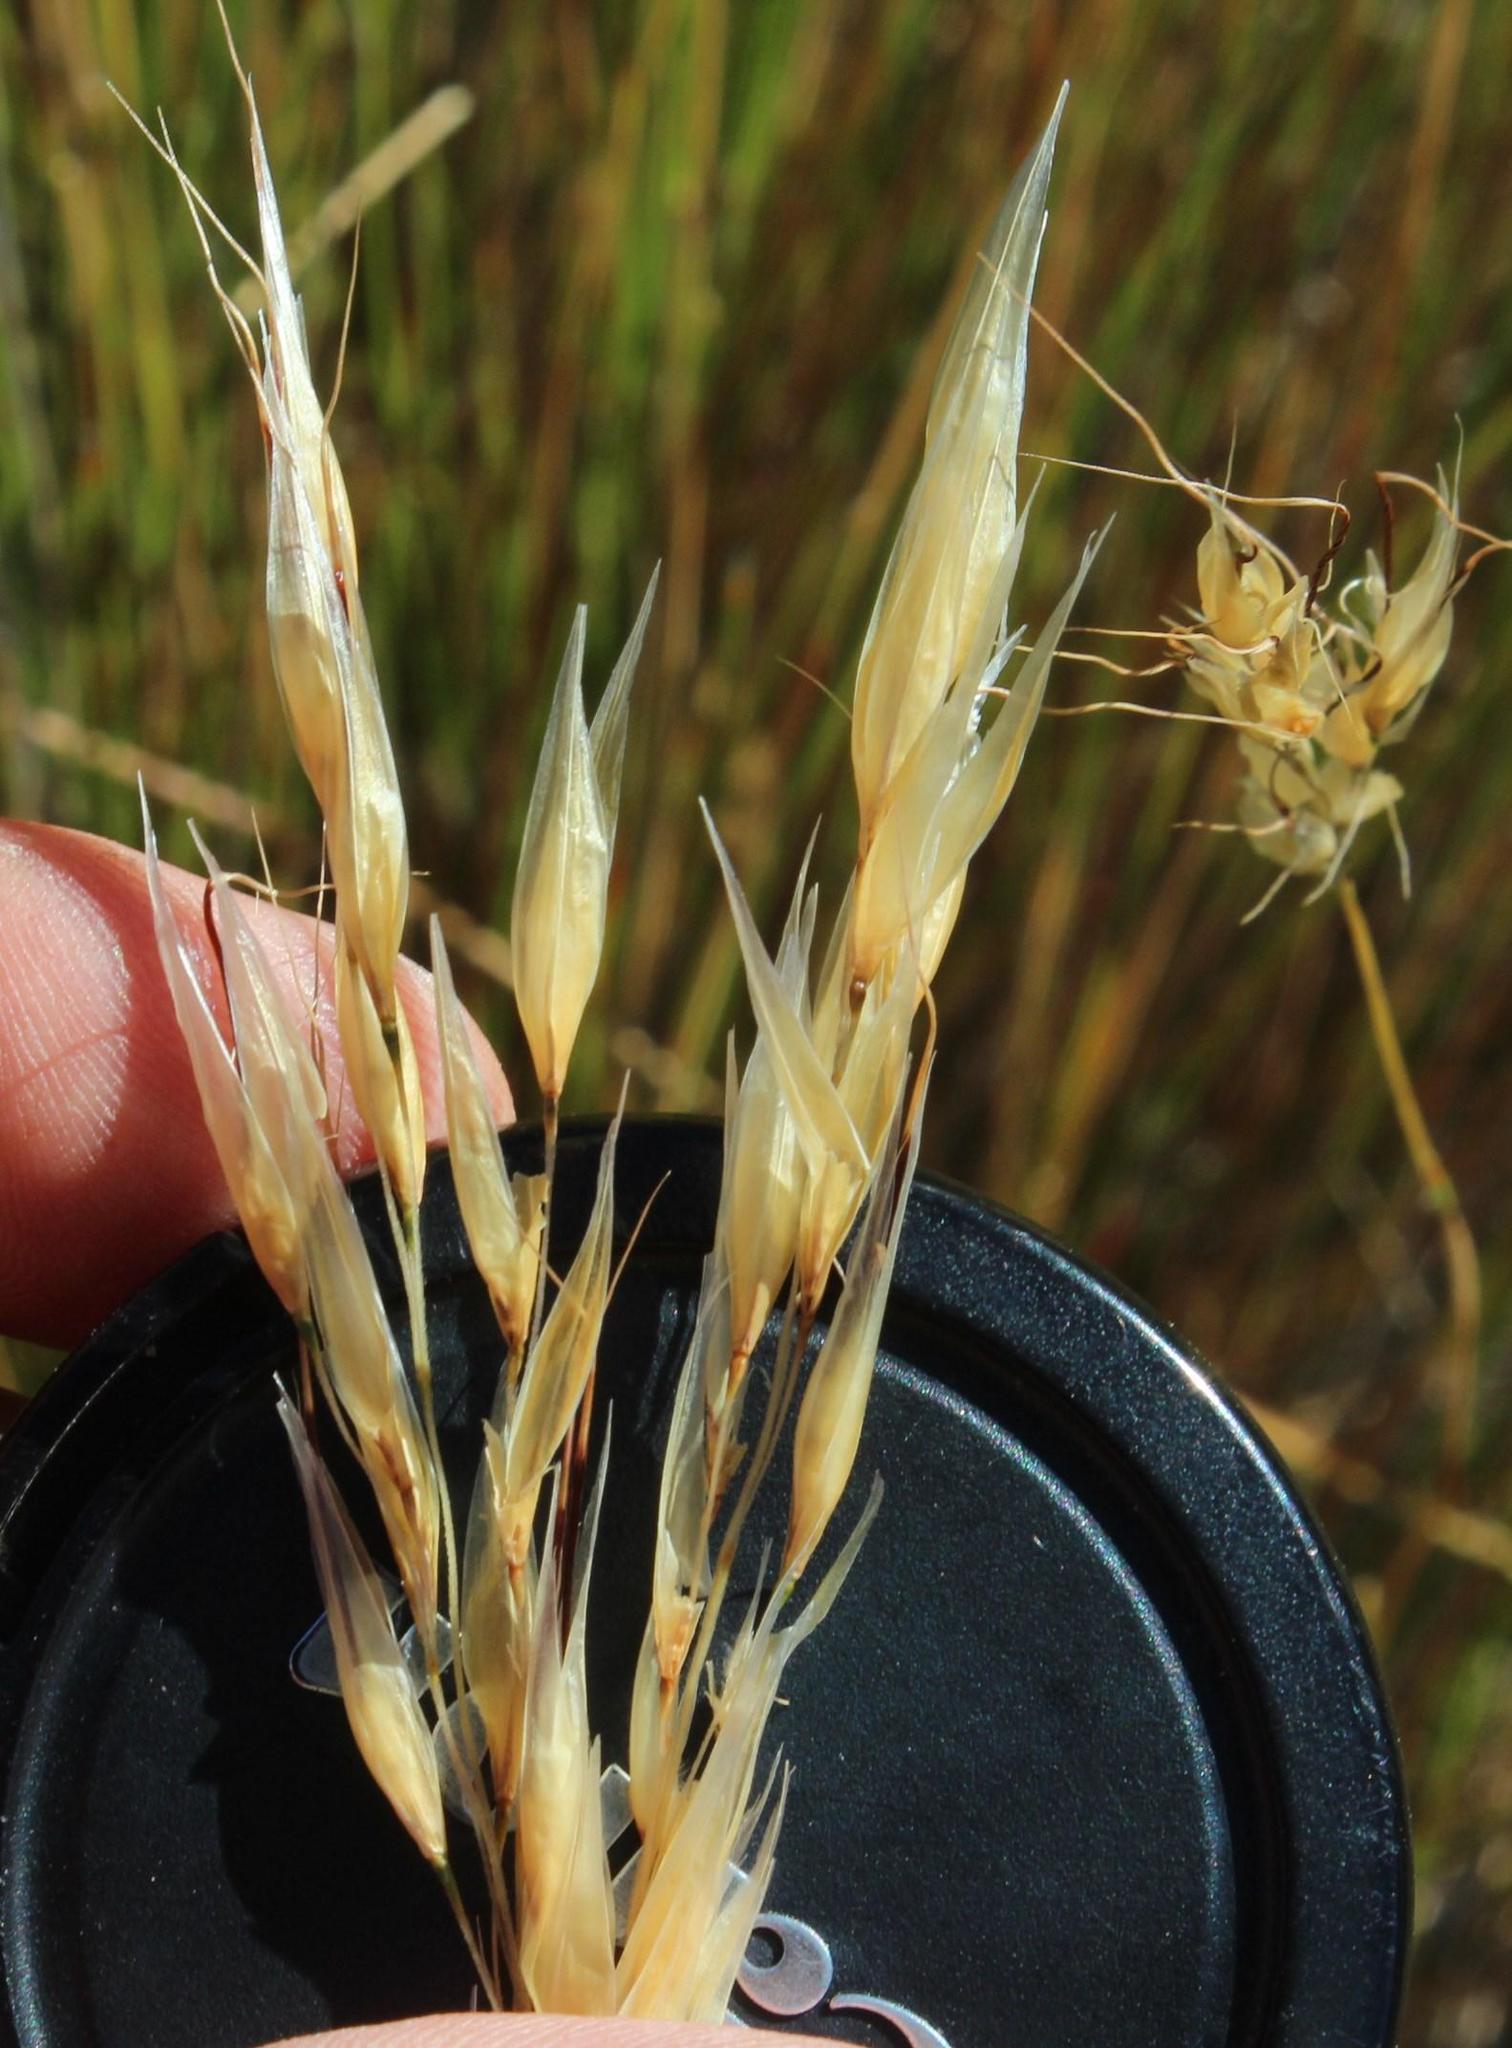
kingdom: Plantae
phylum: Tracheophyta
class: Liliopsida
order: Poales
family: Poaceae
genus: Tenaxia
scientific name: Tenaxia stricta
